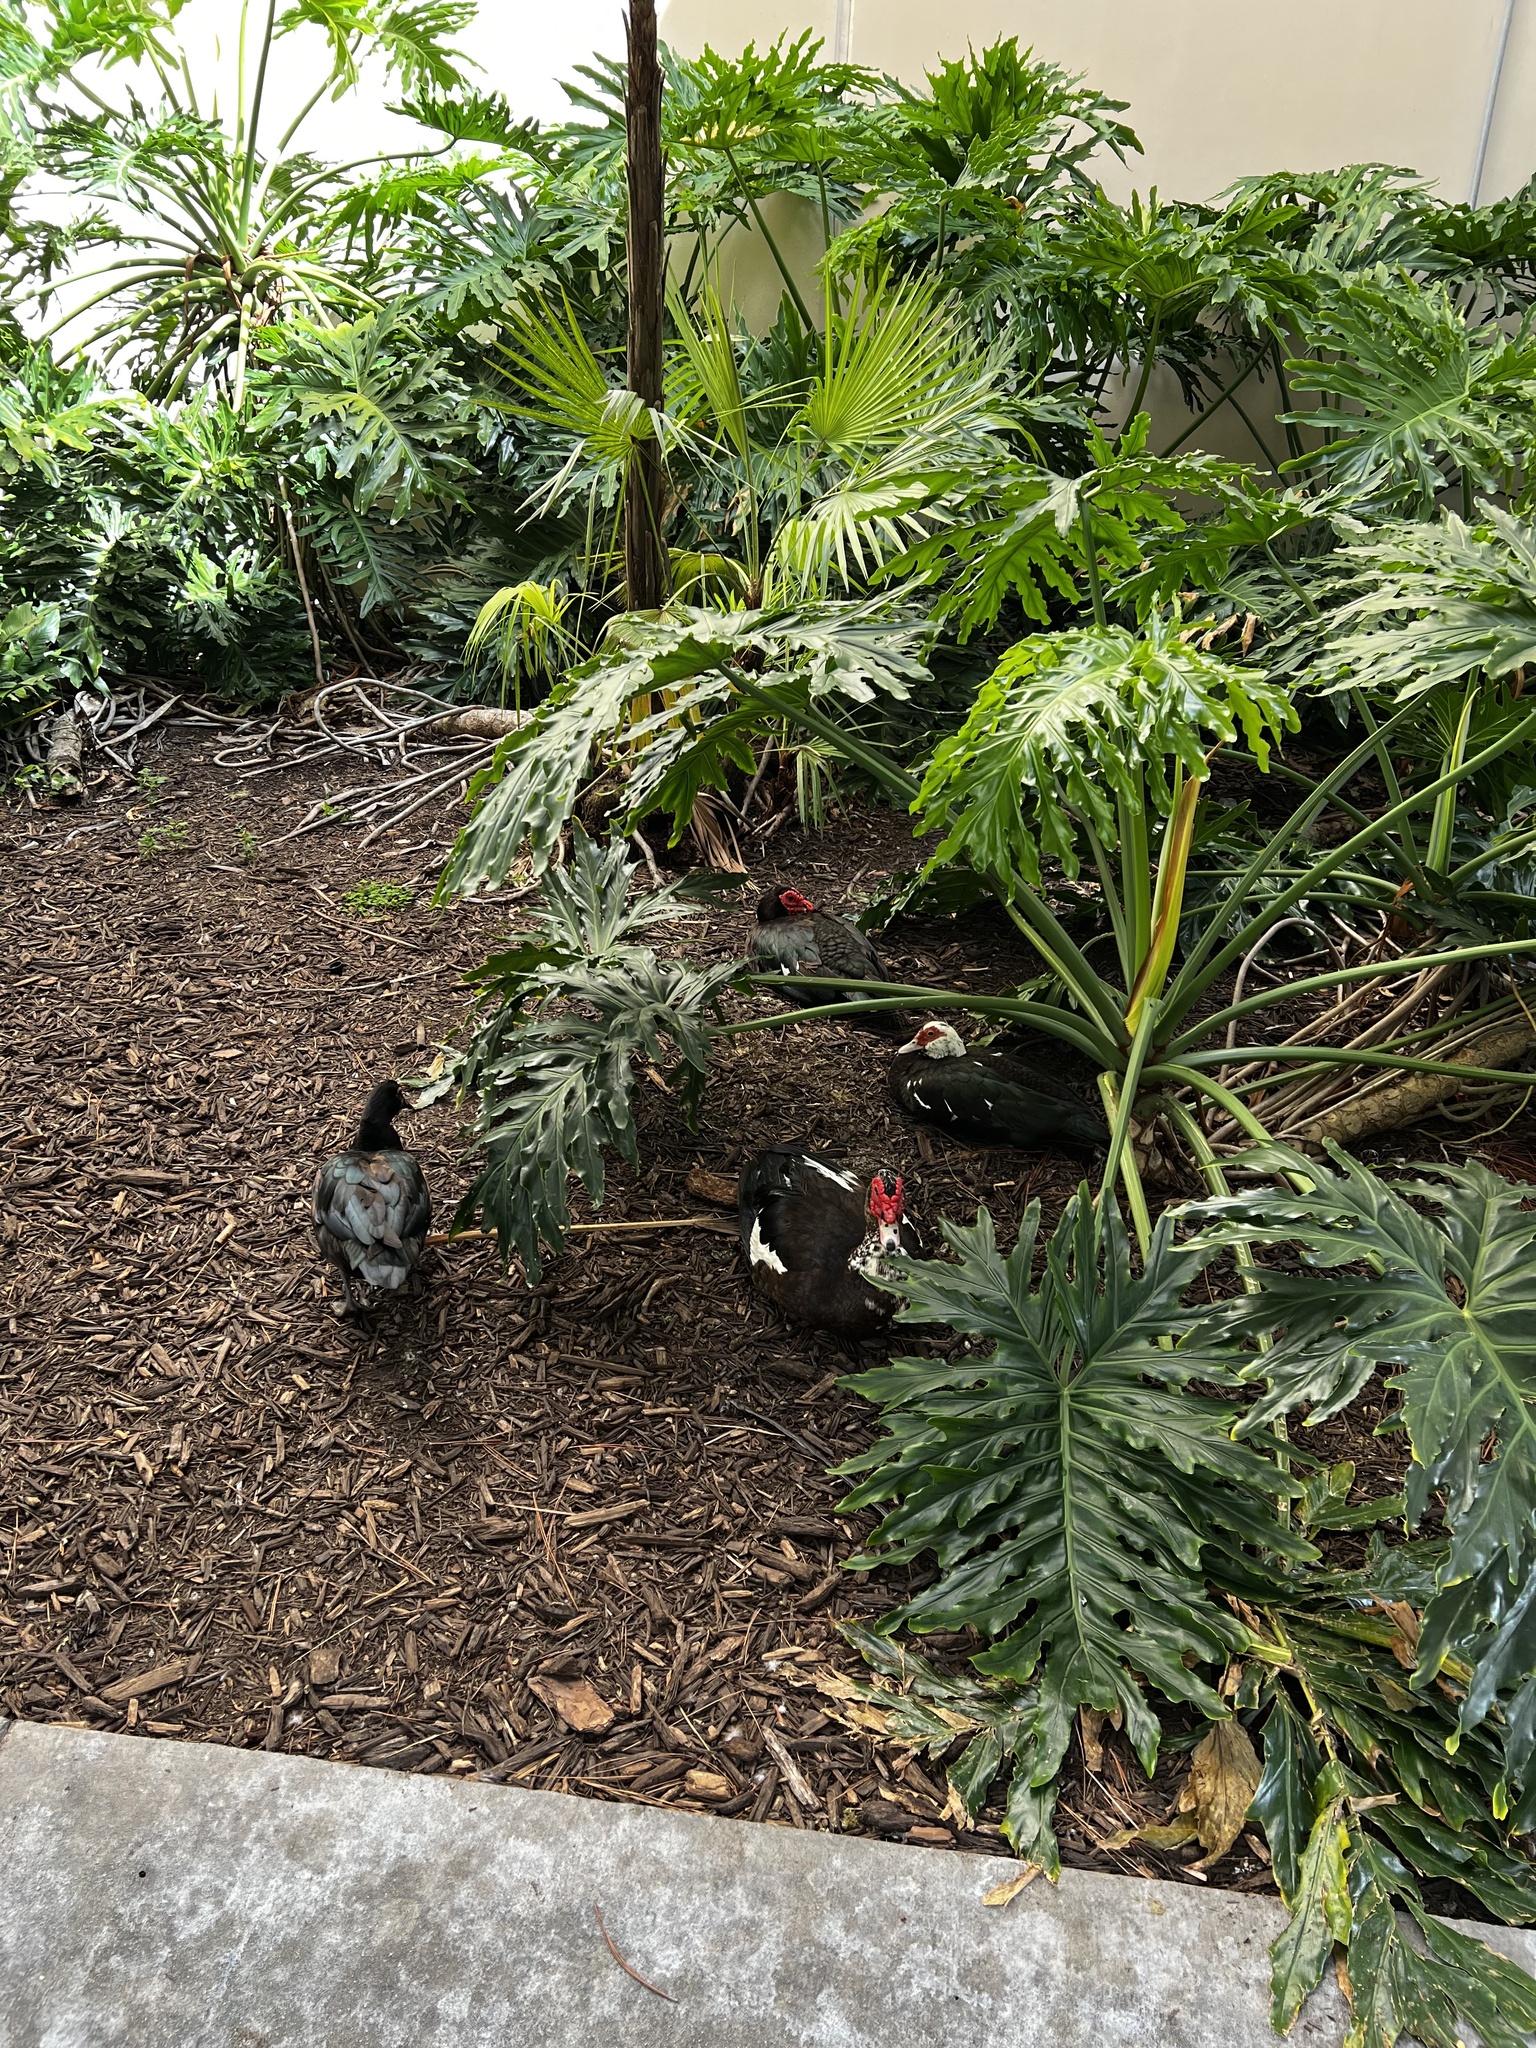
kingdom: Animalia
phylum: Chordata
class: Aves
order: Anseriformes
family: Anatidae
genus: Cairina
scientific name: Cairina moschata
